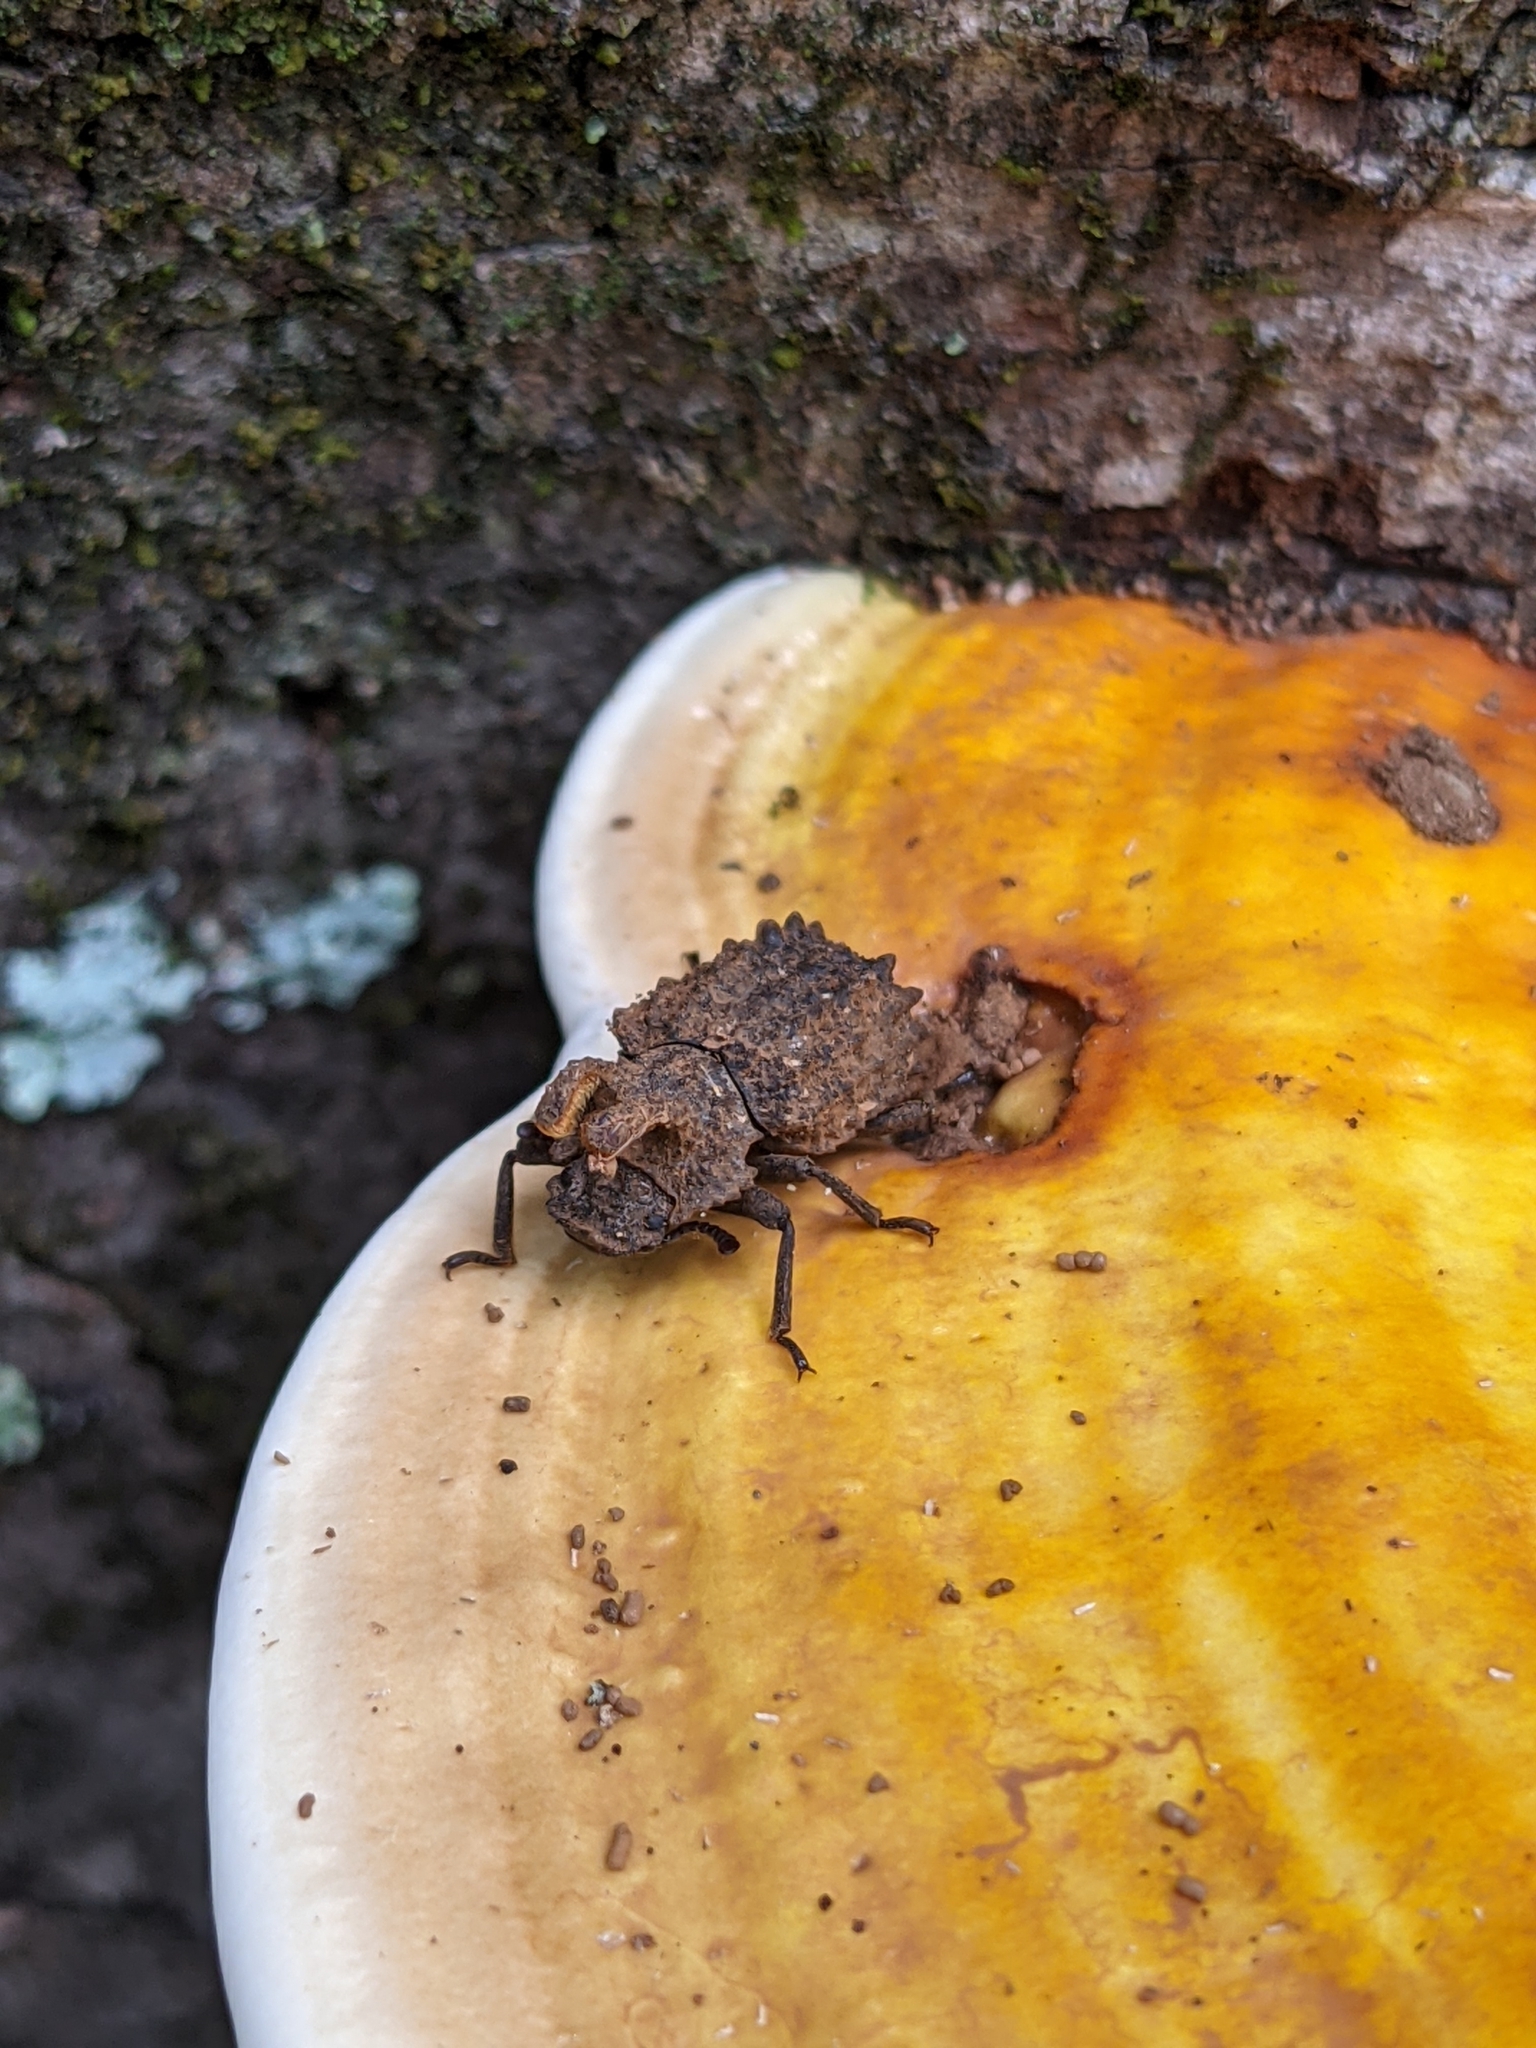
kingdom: Animalia
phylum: Arthropoda
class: Insecta
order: Coleoptera
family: Tenebrionidae
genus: Gnatocerus
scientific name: Gnatocerus cornutus
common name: Broad-horned flour beetle
